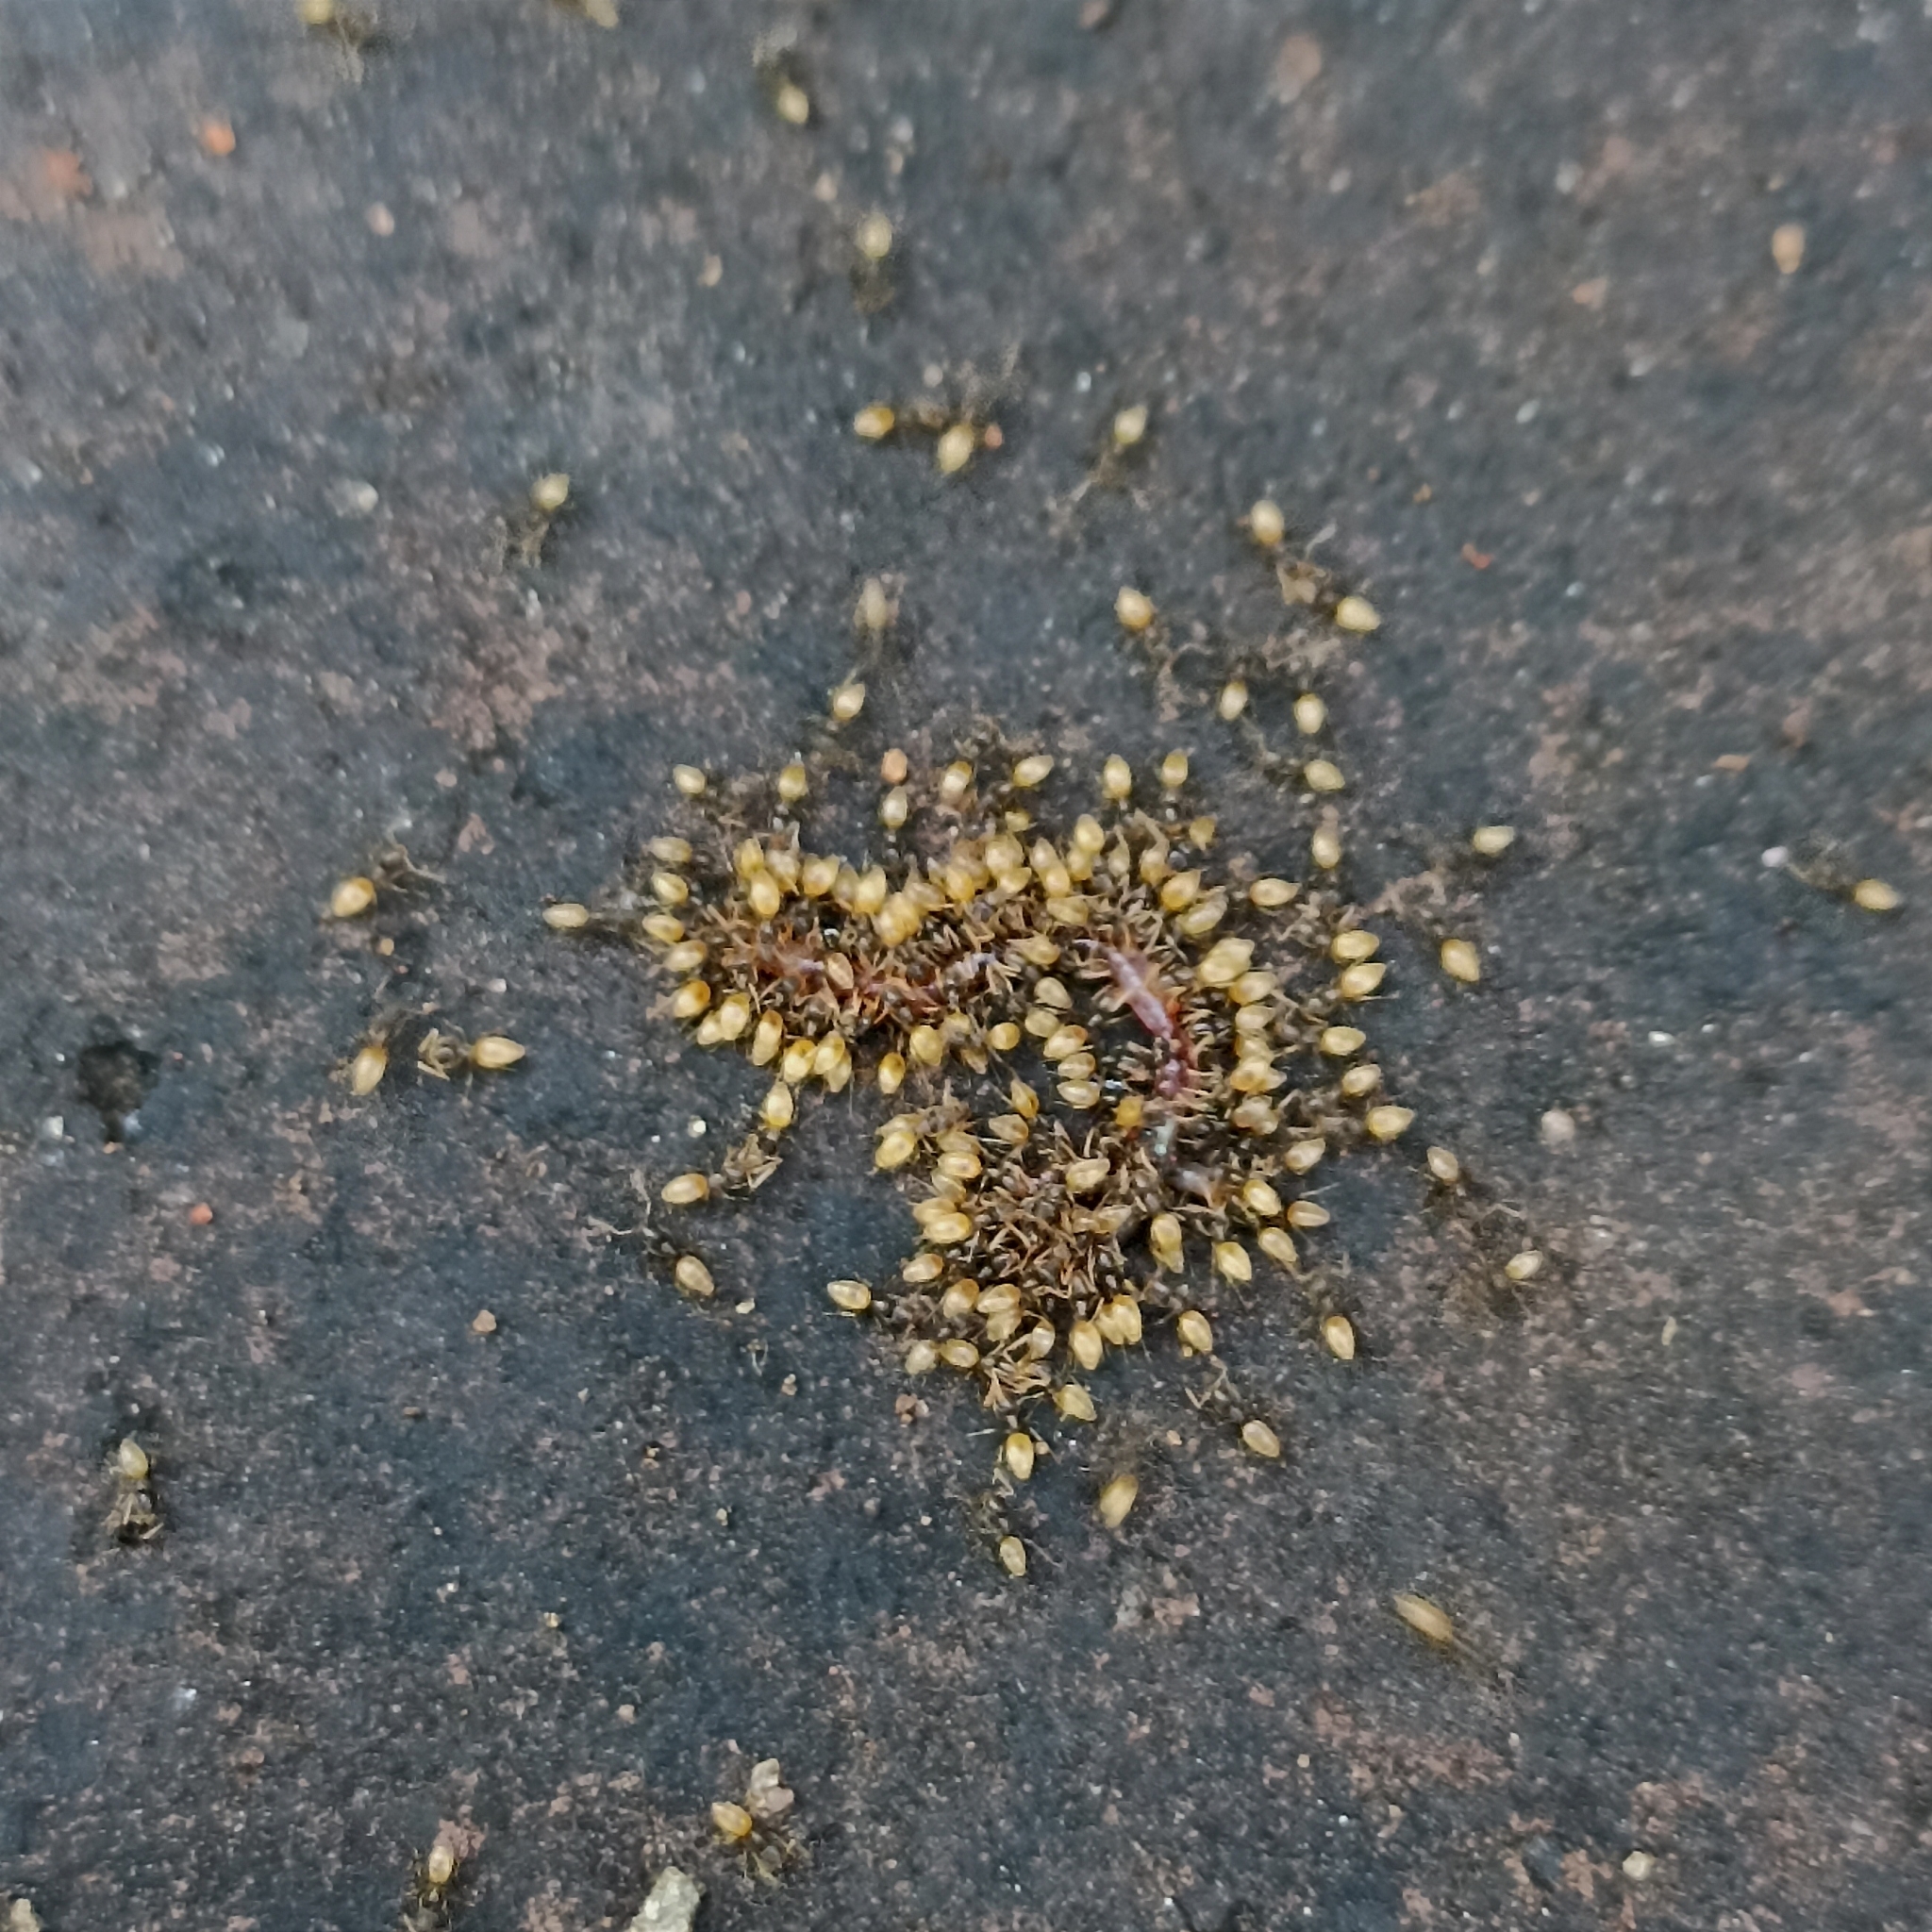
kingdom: Animalia
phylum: Arthropoda
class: Insecta
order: Hymenoptera
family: Formicidae
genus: Tapinoma
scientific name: Tapinoma melanocephalum
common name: Ghost ant
